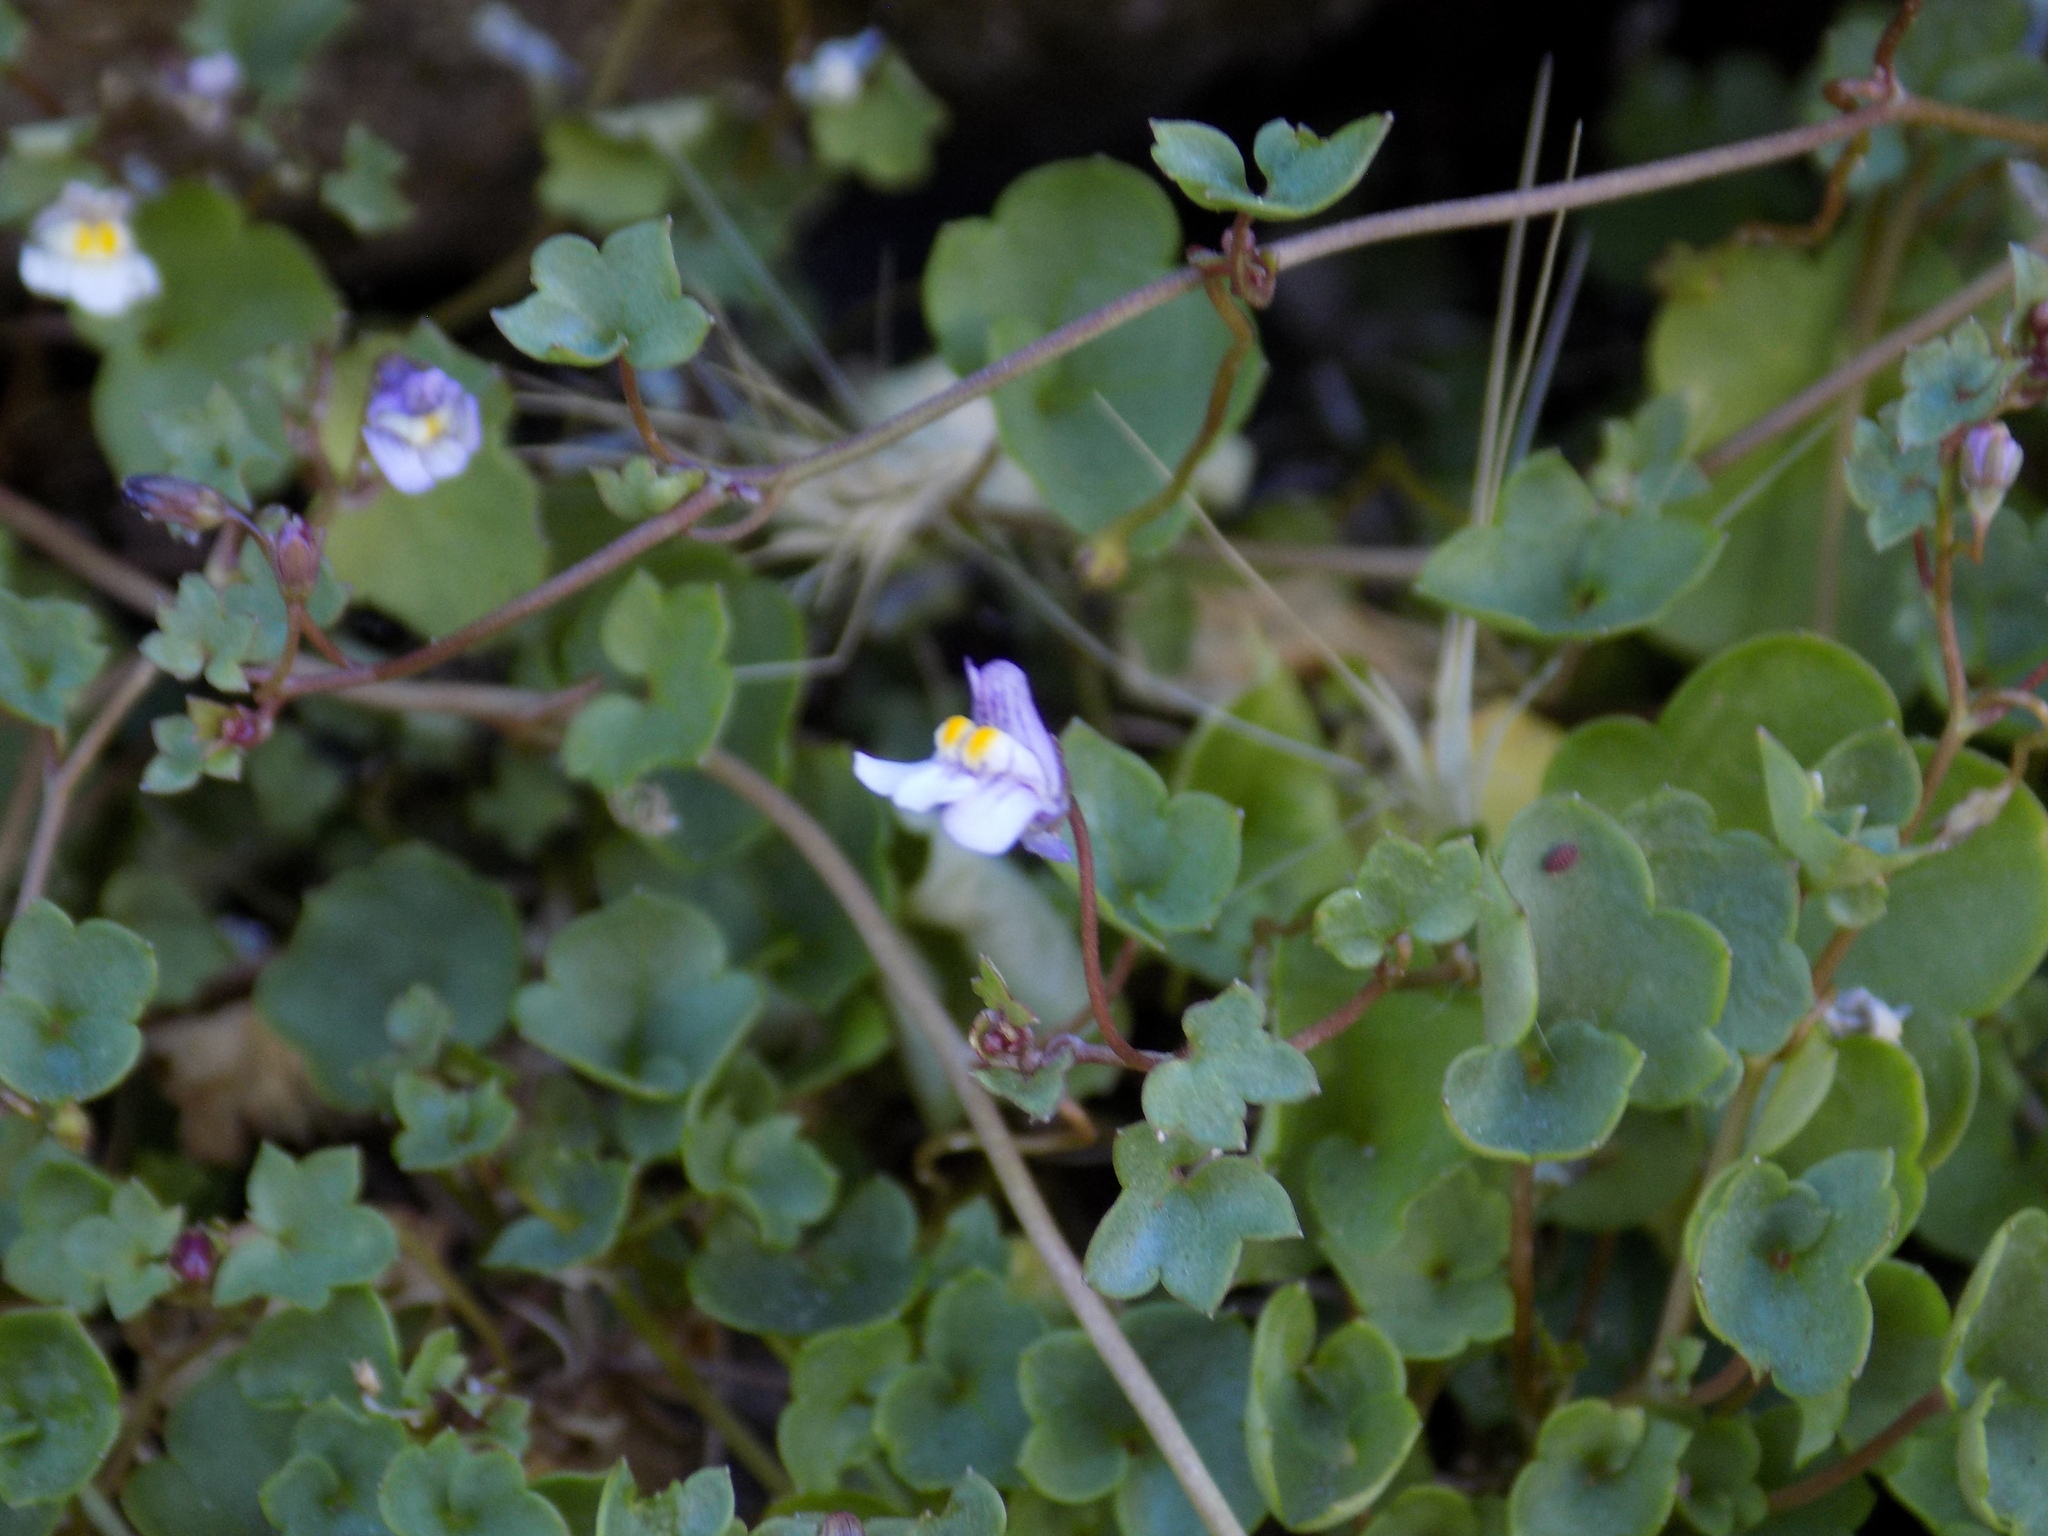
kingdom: Plantae
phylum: Tracheophyta
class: Magnoliopsida
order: Lamiales
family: Plantaginaceae
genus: Cymbalaria
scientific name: Cymbalaria muralis
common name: Ivy-leaved toadflax
